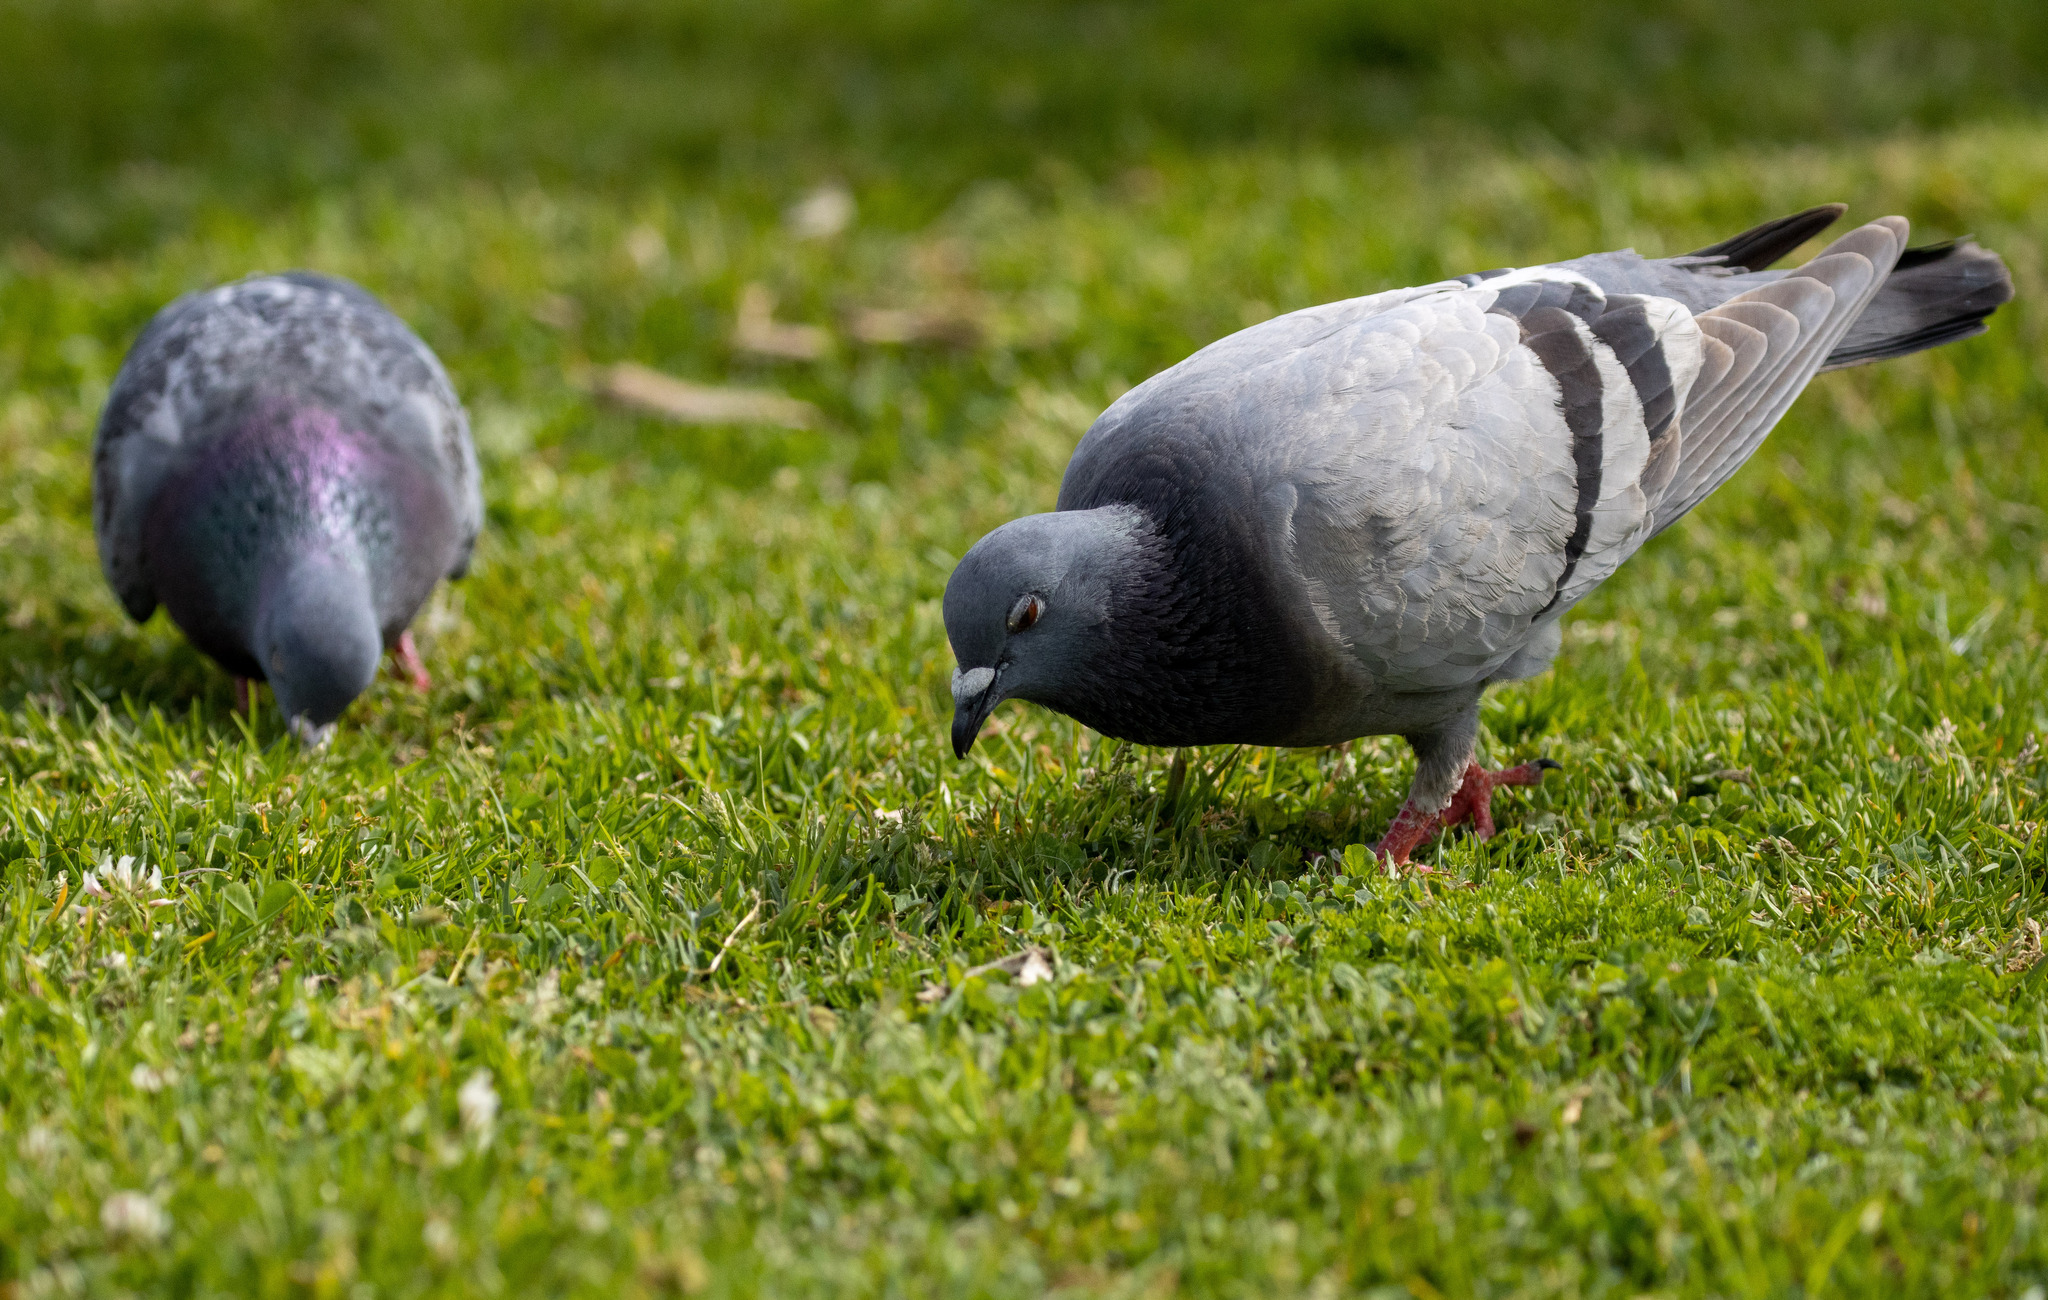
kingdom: Animalia
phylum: Chordata
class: Aves
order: Columbiformes
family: Columbidae
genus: Columba
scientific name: Columba livia
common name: Rock pigeon
